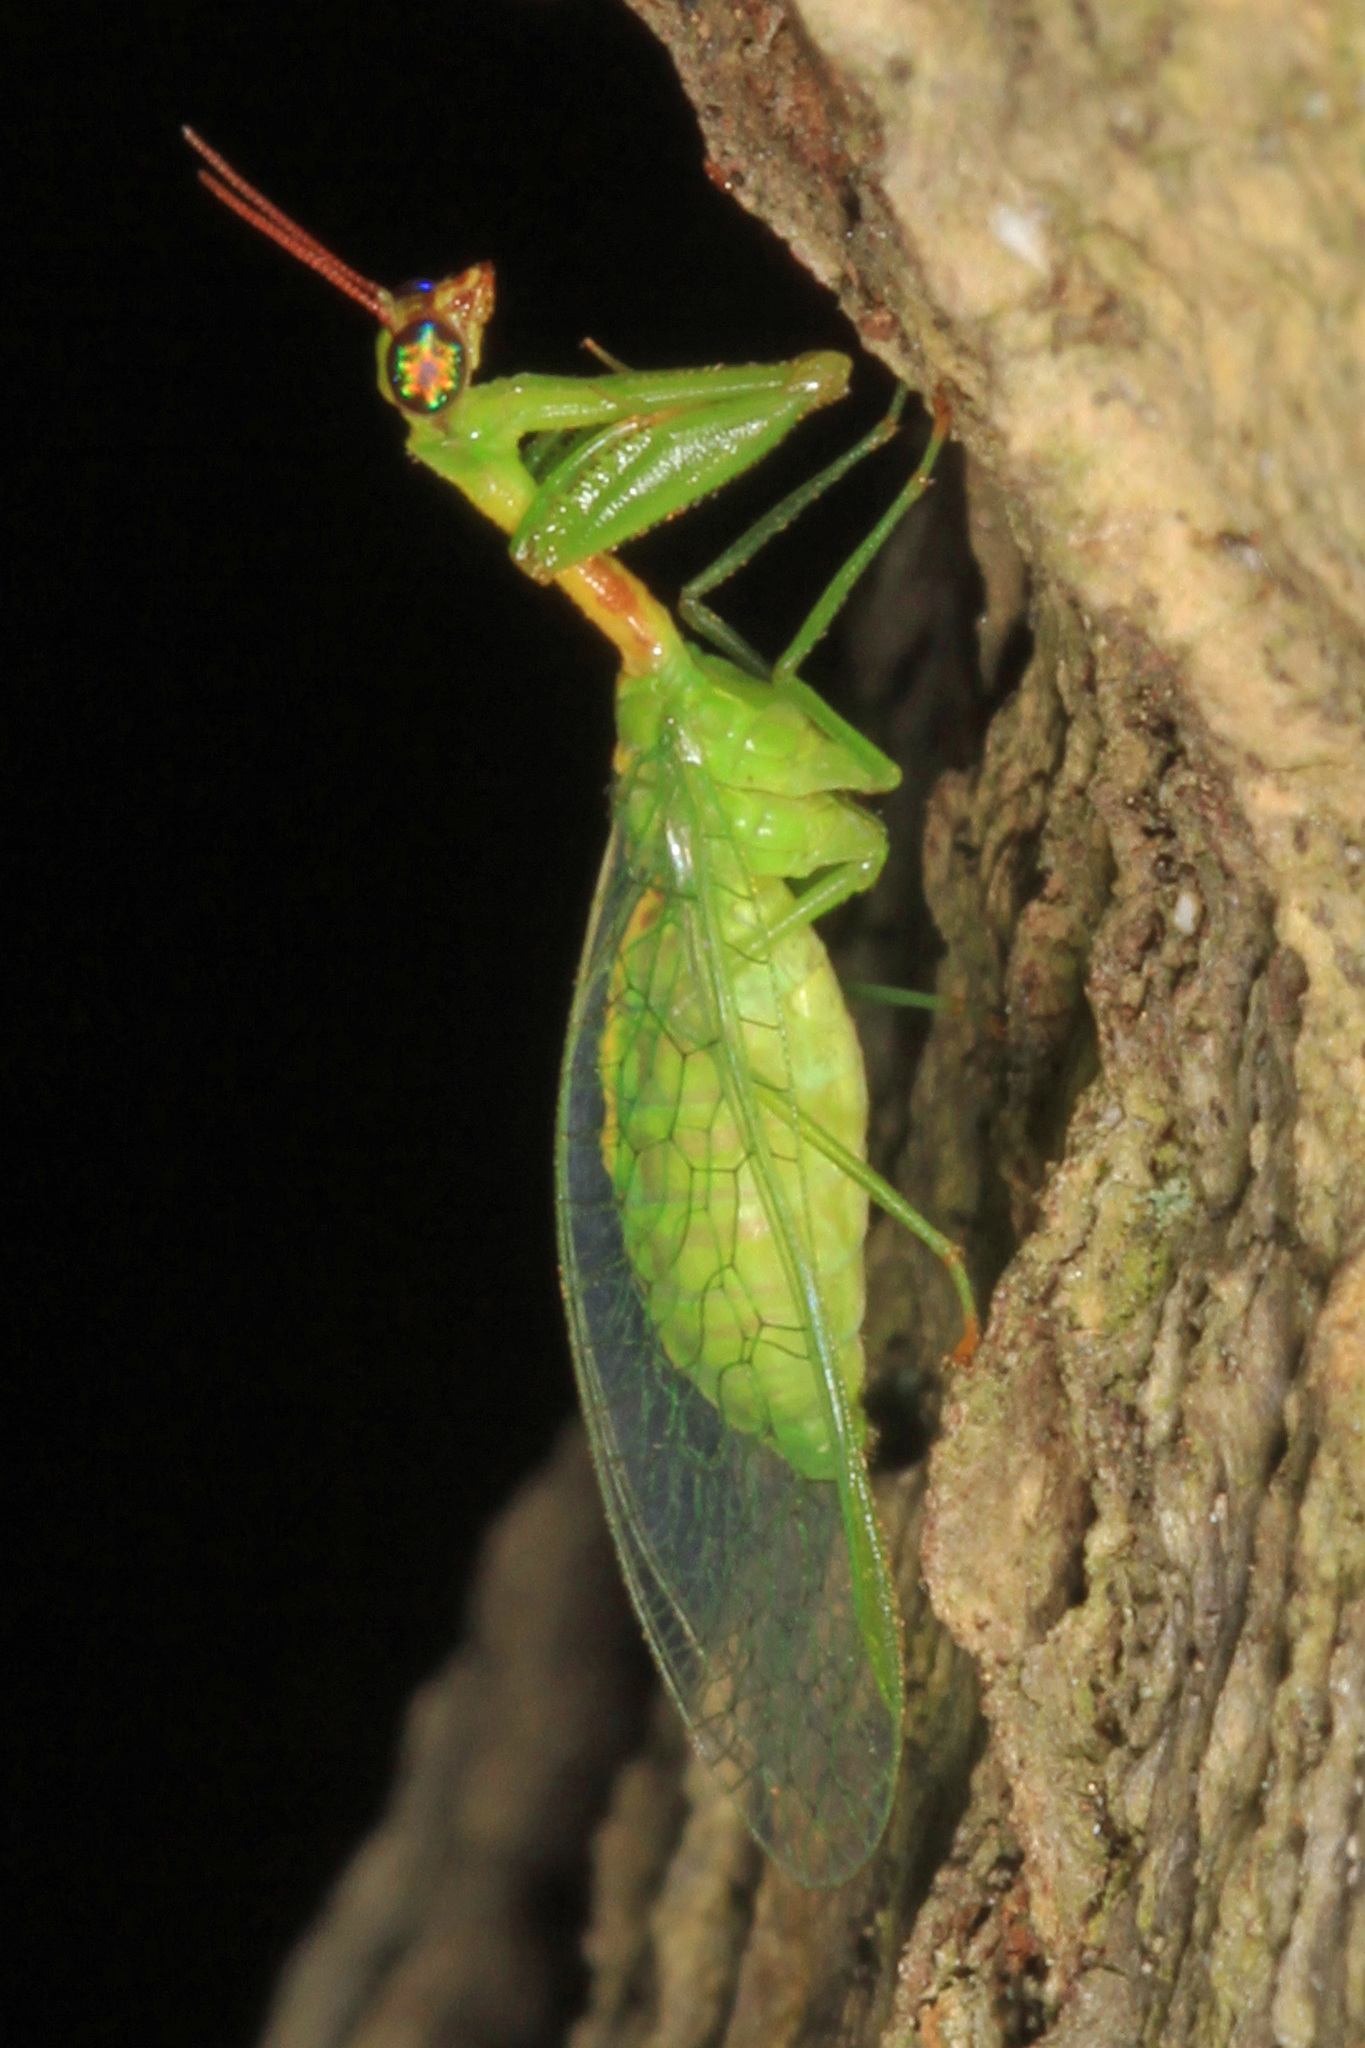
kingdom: Animalia
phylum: Arthropoda
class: Insecta
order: Neuroptera
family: Mantispidae
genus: Zeugomantispa
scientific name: Zeugomantispa minuta
